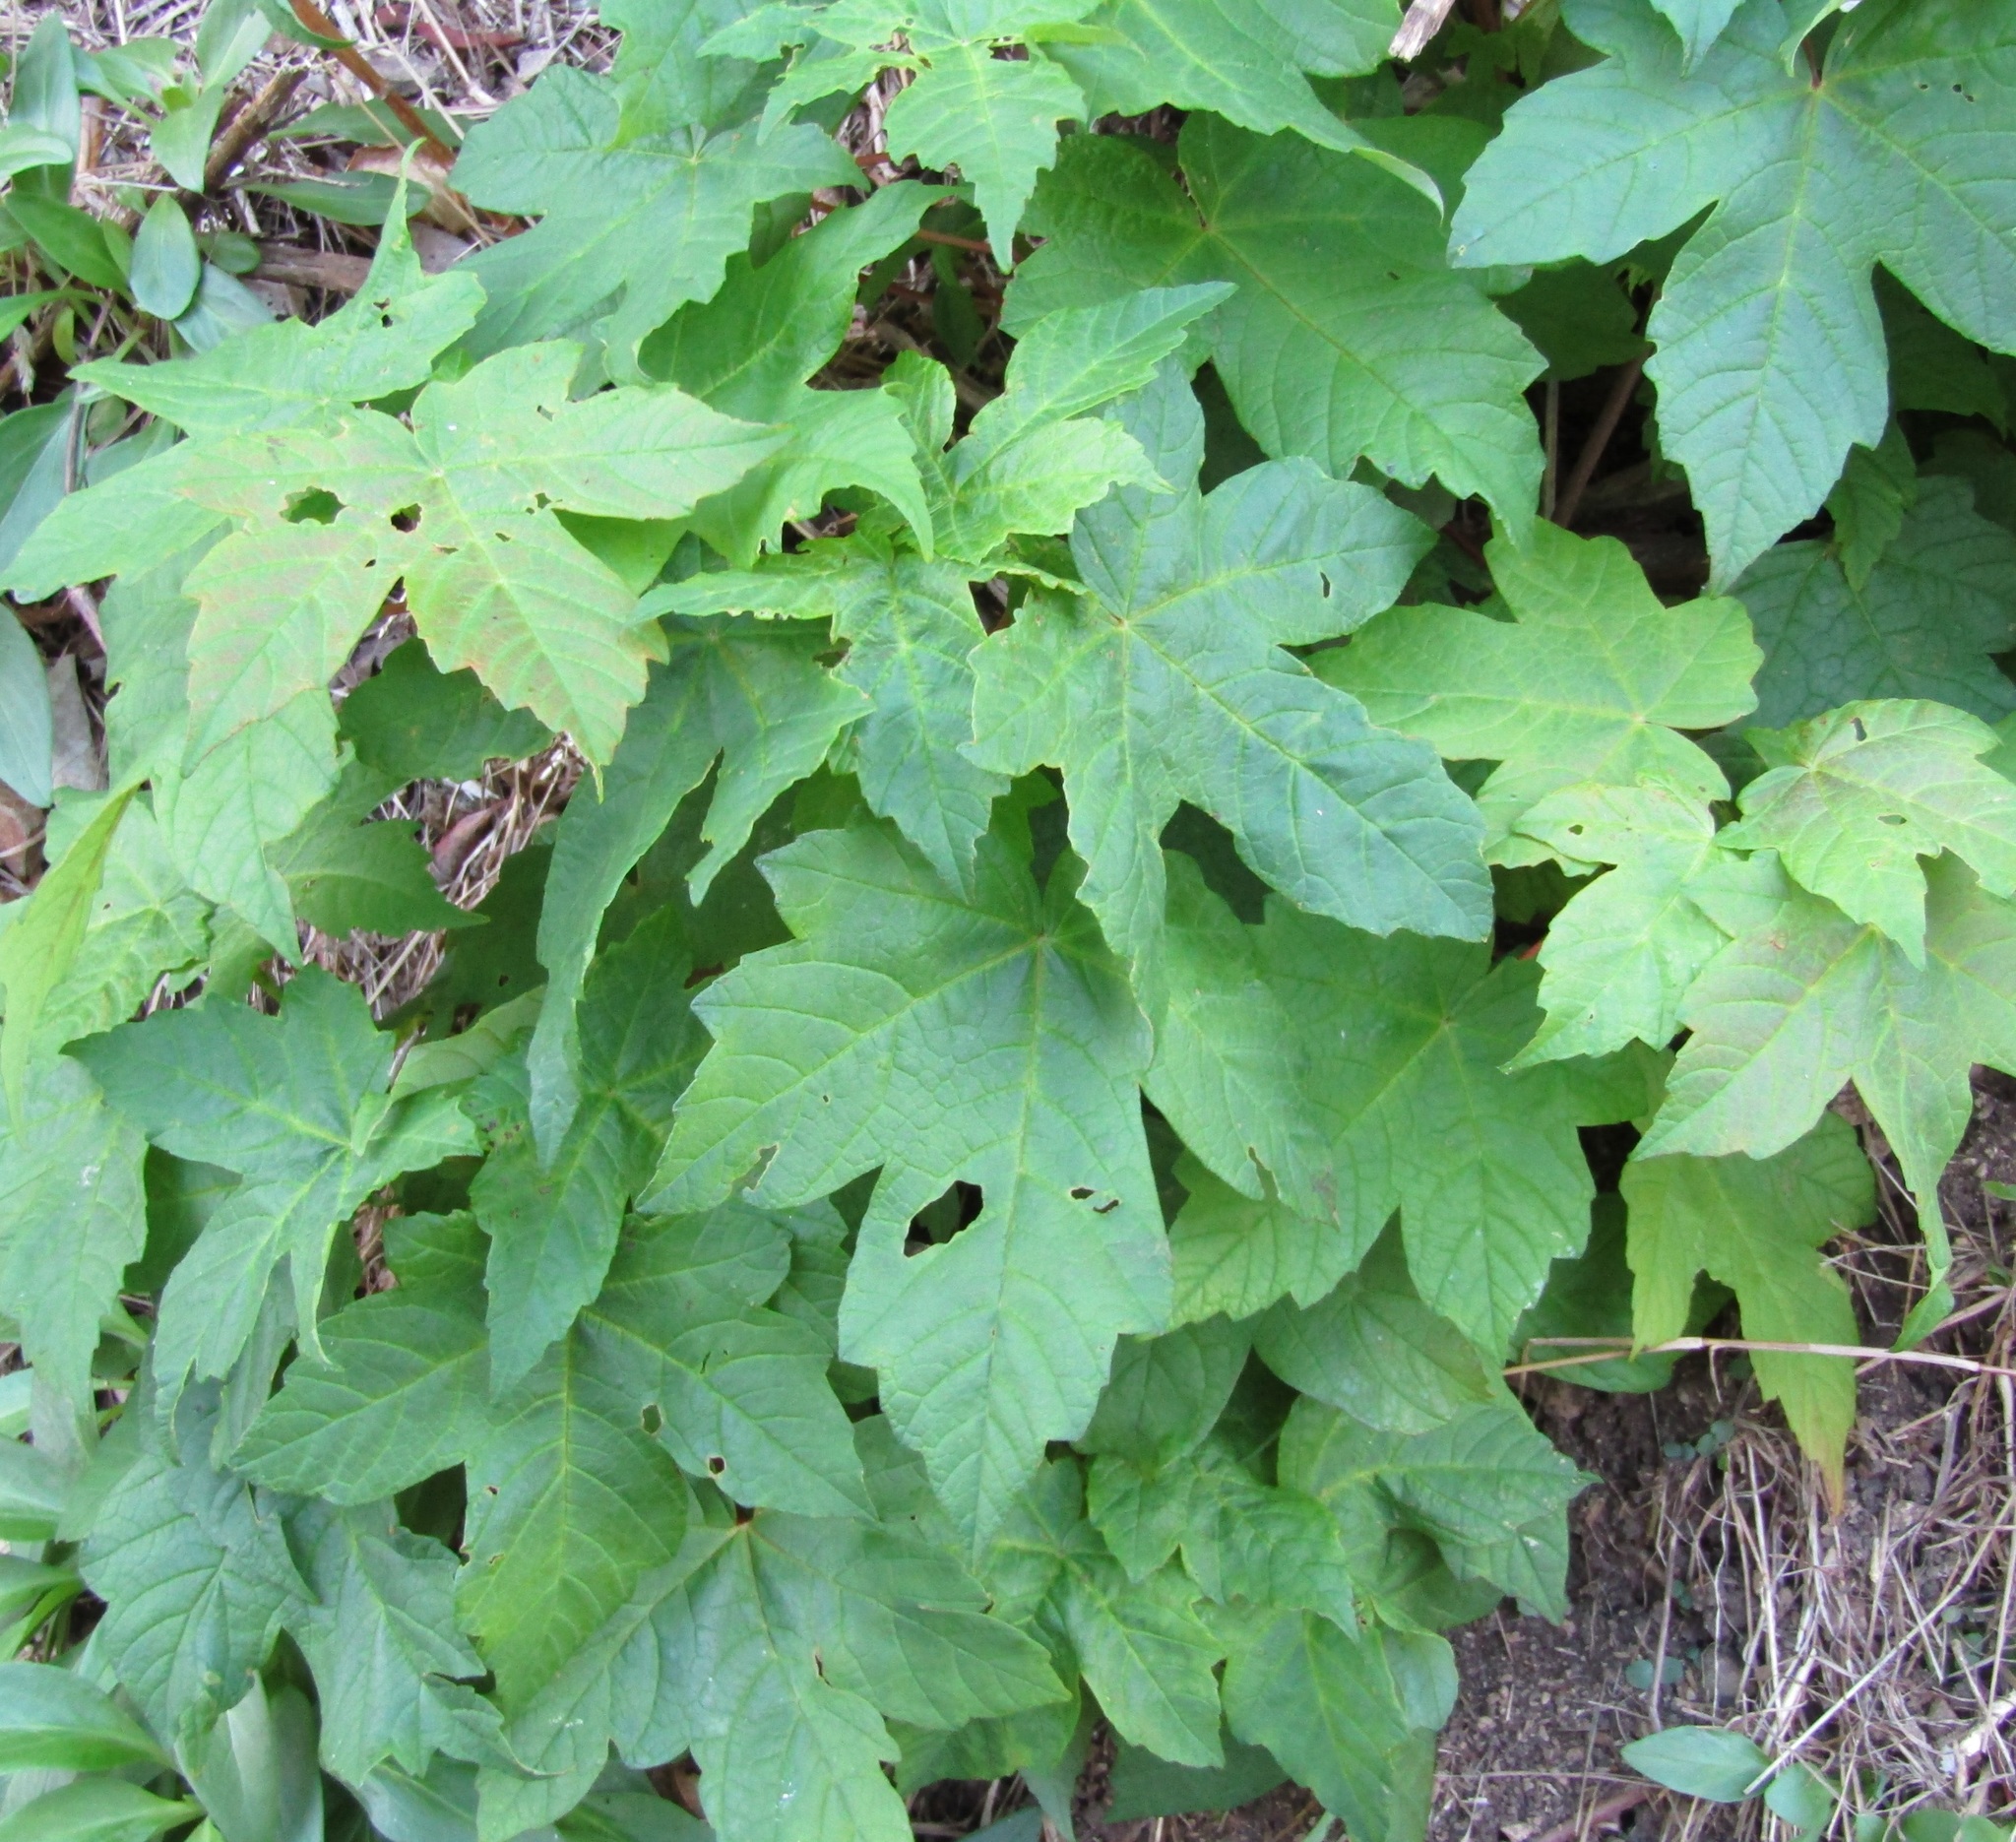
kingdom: Plantae
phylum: Tracheophyta
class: Magnoliopsida
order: Sapindales
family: Sapindaceae
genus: Acer
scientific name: Acer pseudoplatanus
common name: Sycamore
